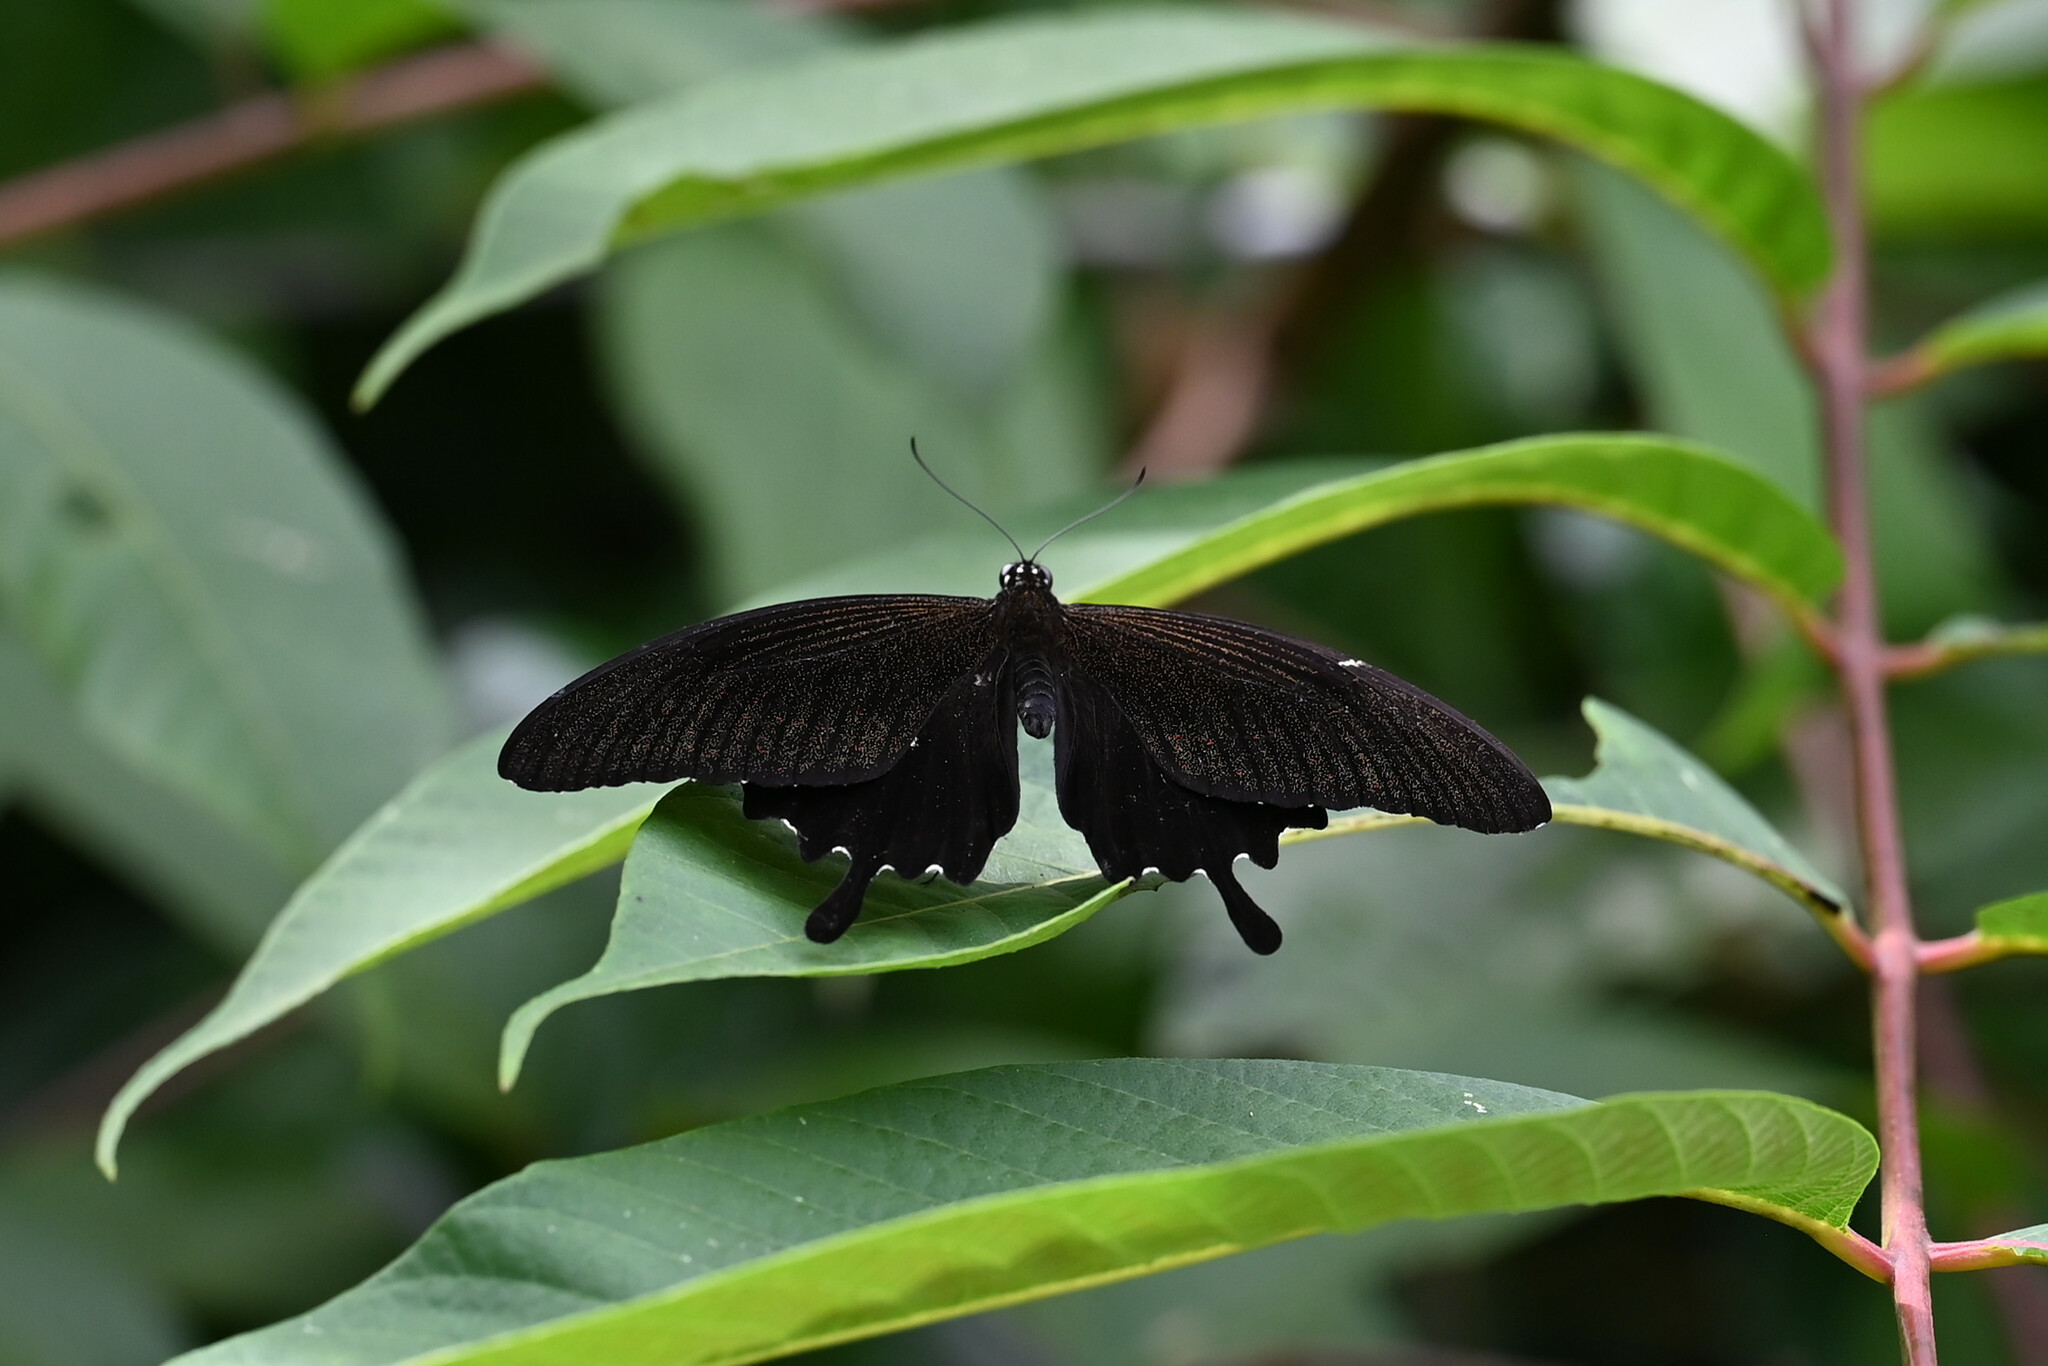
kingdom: Animalia
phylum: Arthropoda
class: Insecta
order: Lepidoptera
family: Papilionidae
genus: Atrophaneura
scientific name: Atrophaneura varuna
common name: Common batwing
